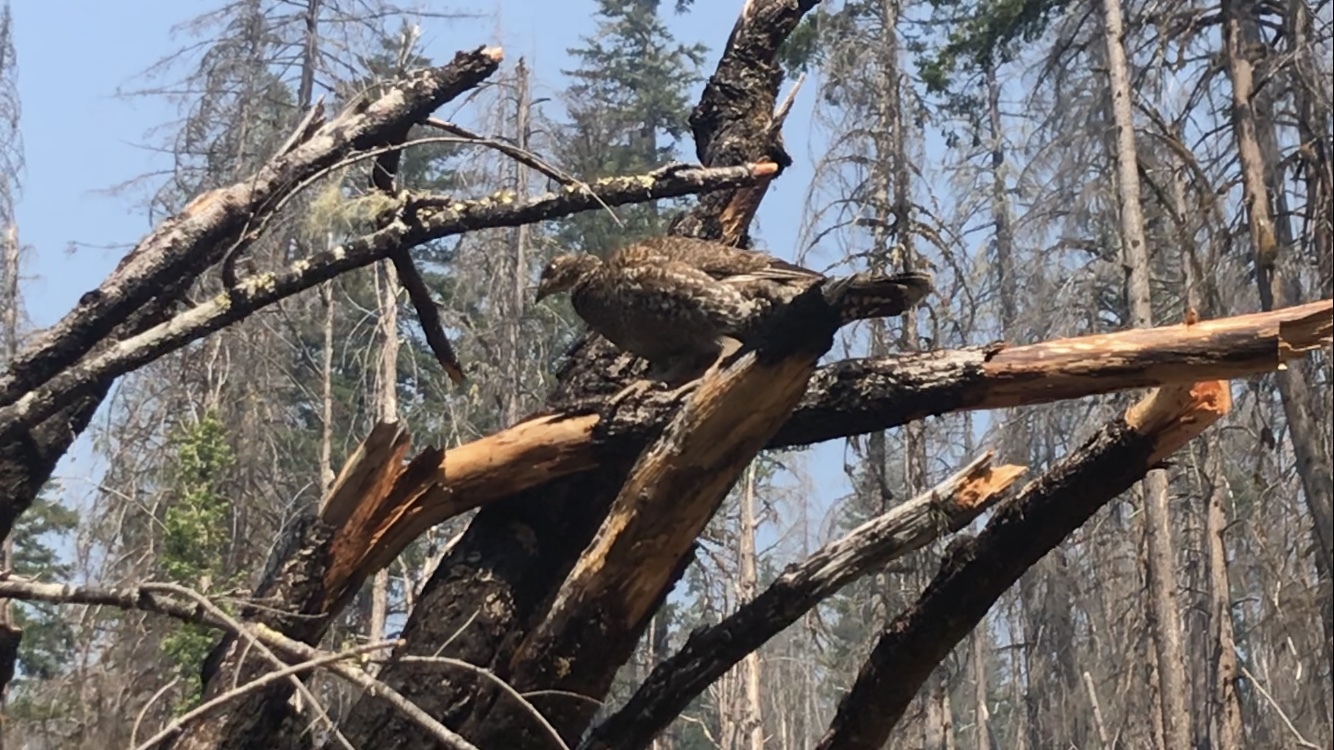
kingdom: Animalia
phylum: Chordata
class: Aves
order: Galliformes
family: Phasianidae
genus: Dendragapus
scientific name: Dendragapus fuliginosus
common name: Sooty grouse
